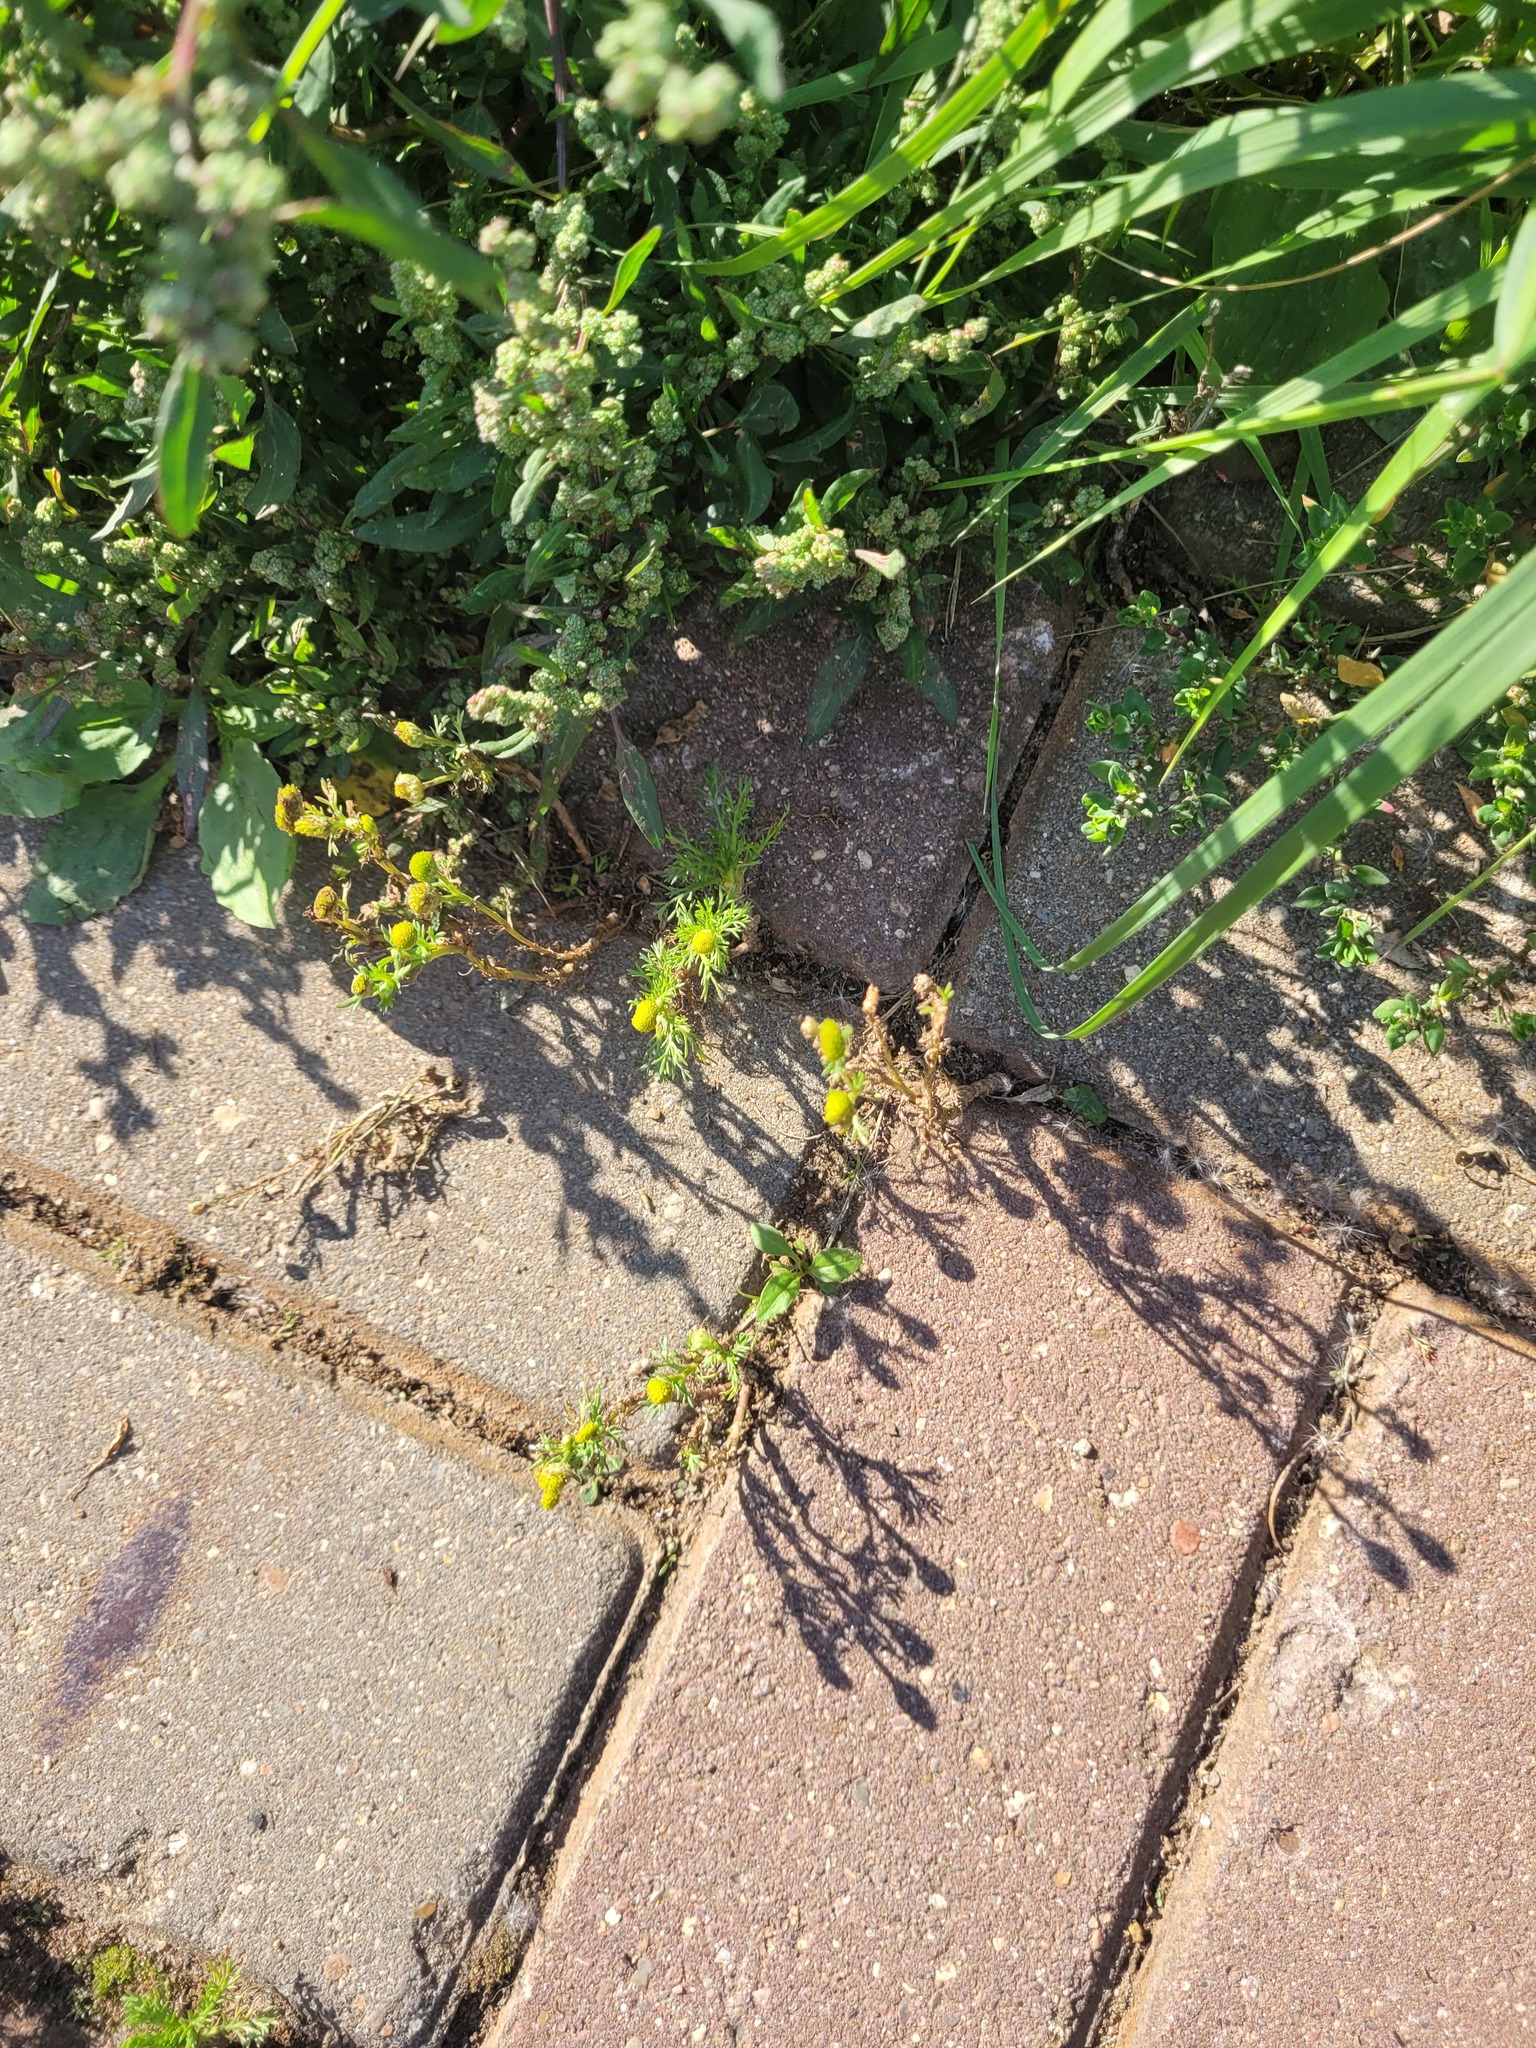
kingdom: Plantae
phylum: Tracheophyta
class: Magnoliopsida
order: Asterales
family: Asteraceae
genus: Matricaria
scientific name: Matricaria discoidea
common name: Disc mayweed
